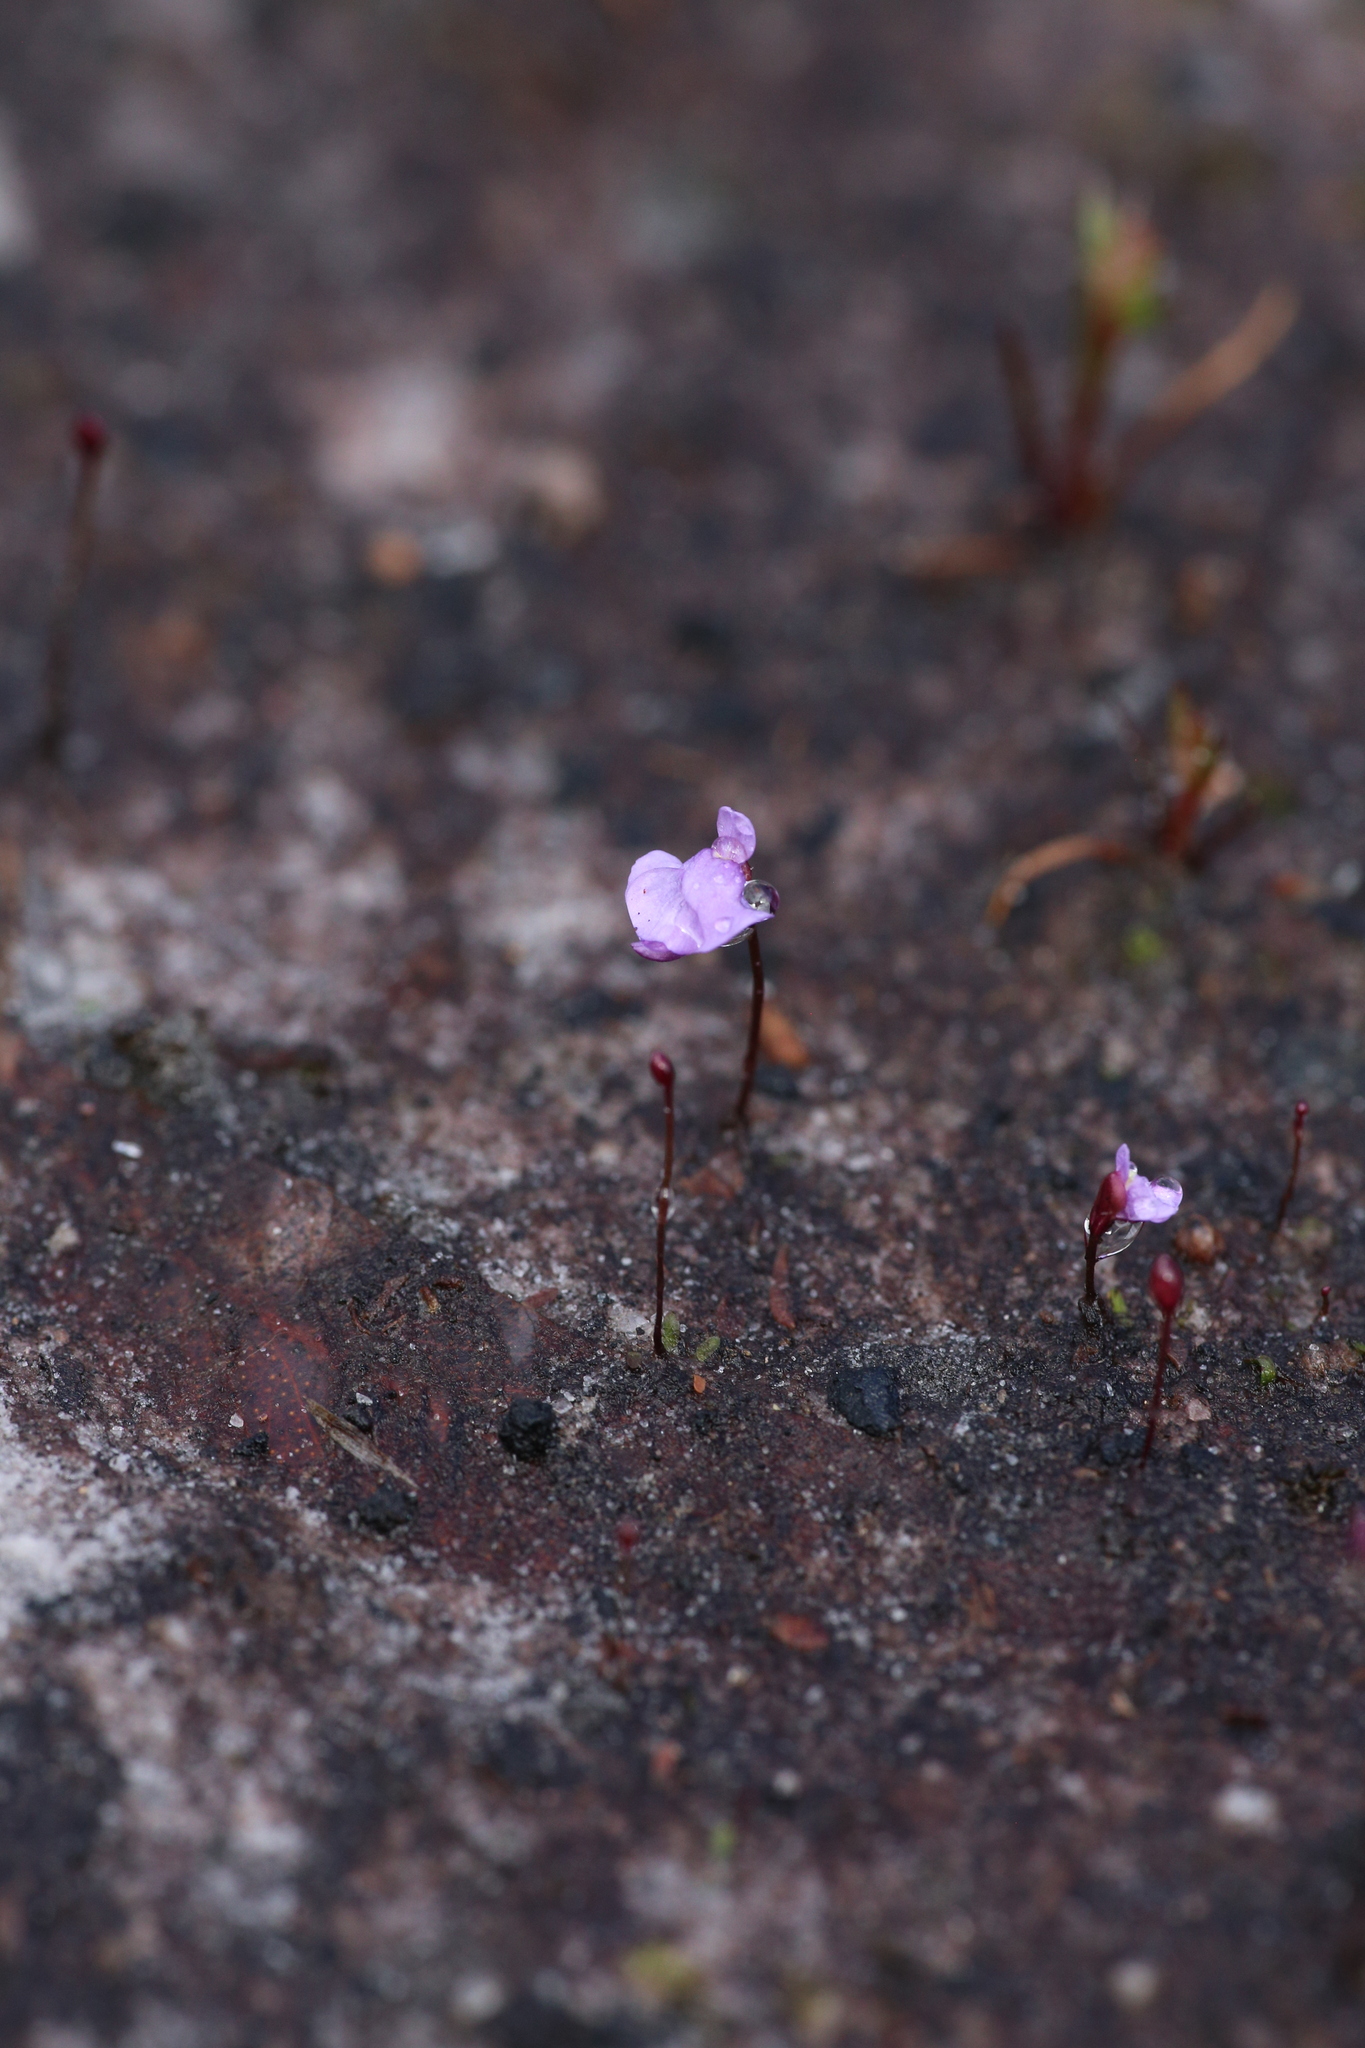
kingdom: Plantae
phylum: Tracheophyta
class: Magnoliopsida
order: Lamiales
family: Lentibulariaceae
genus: Utricularia
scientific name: Utricularia simplex
